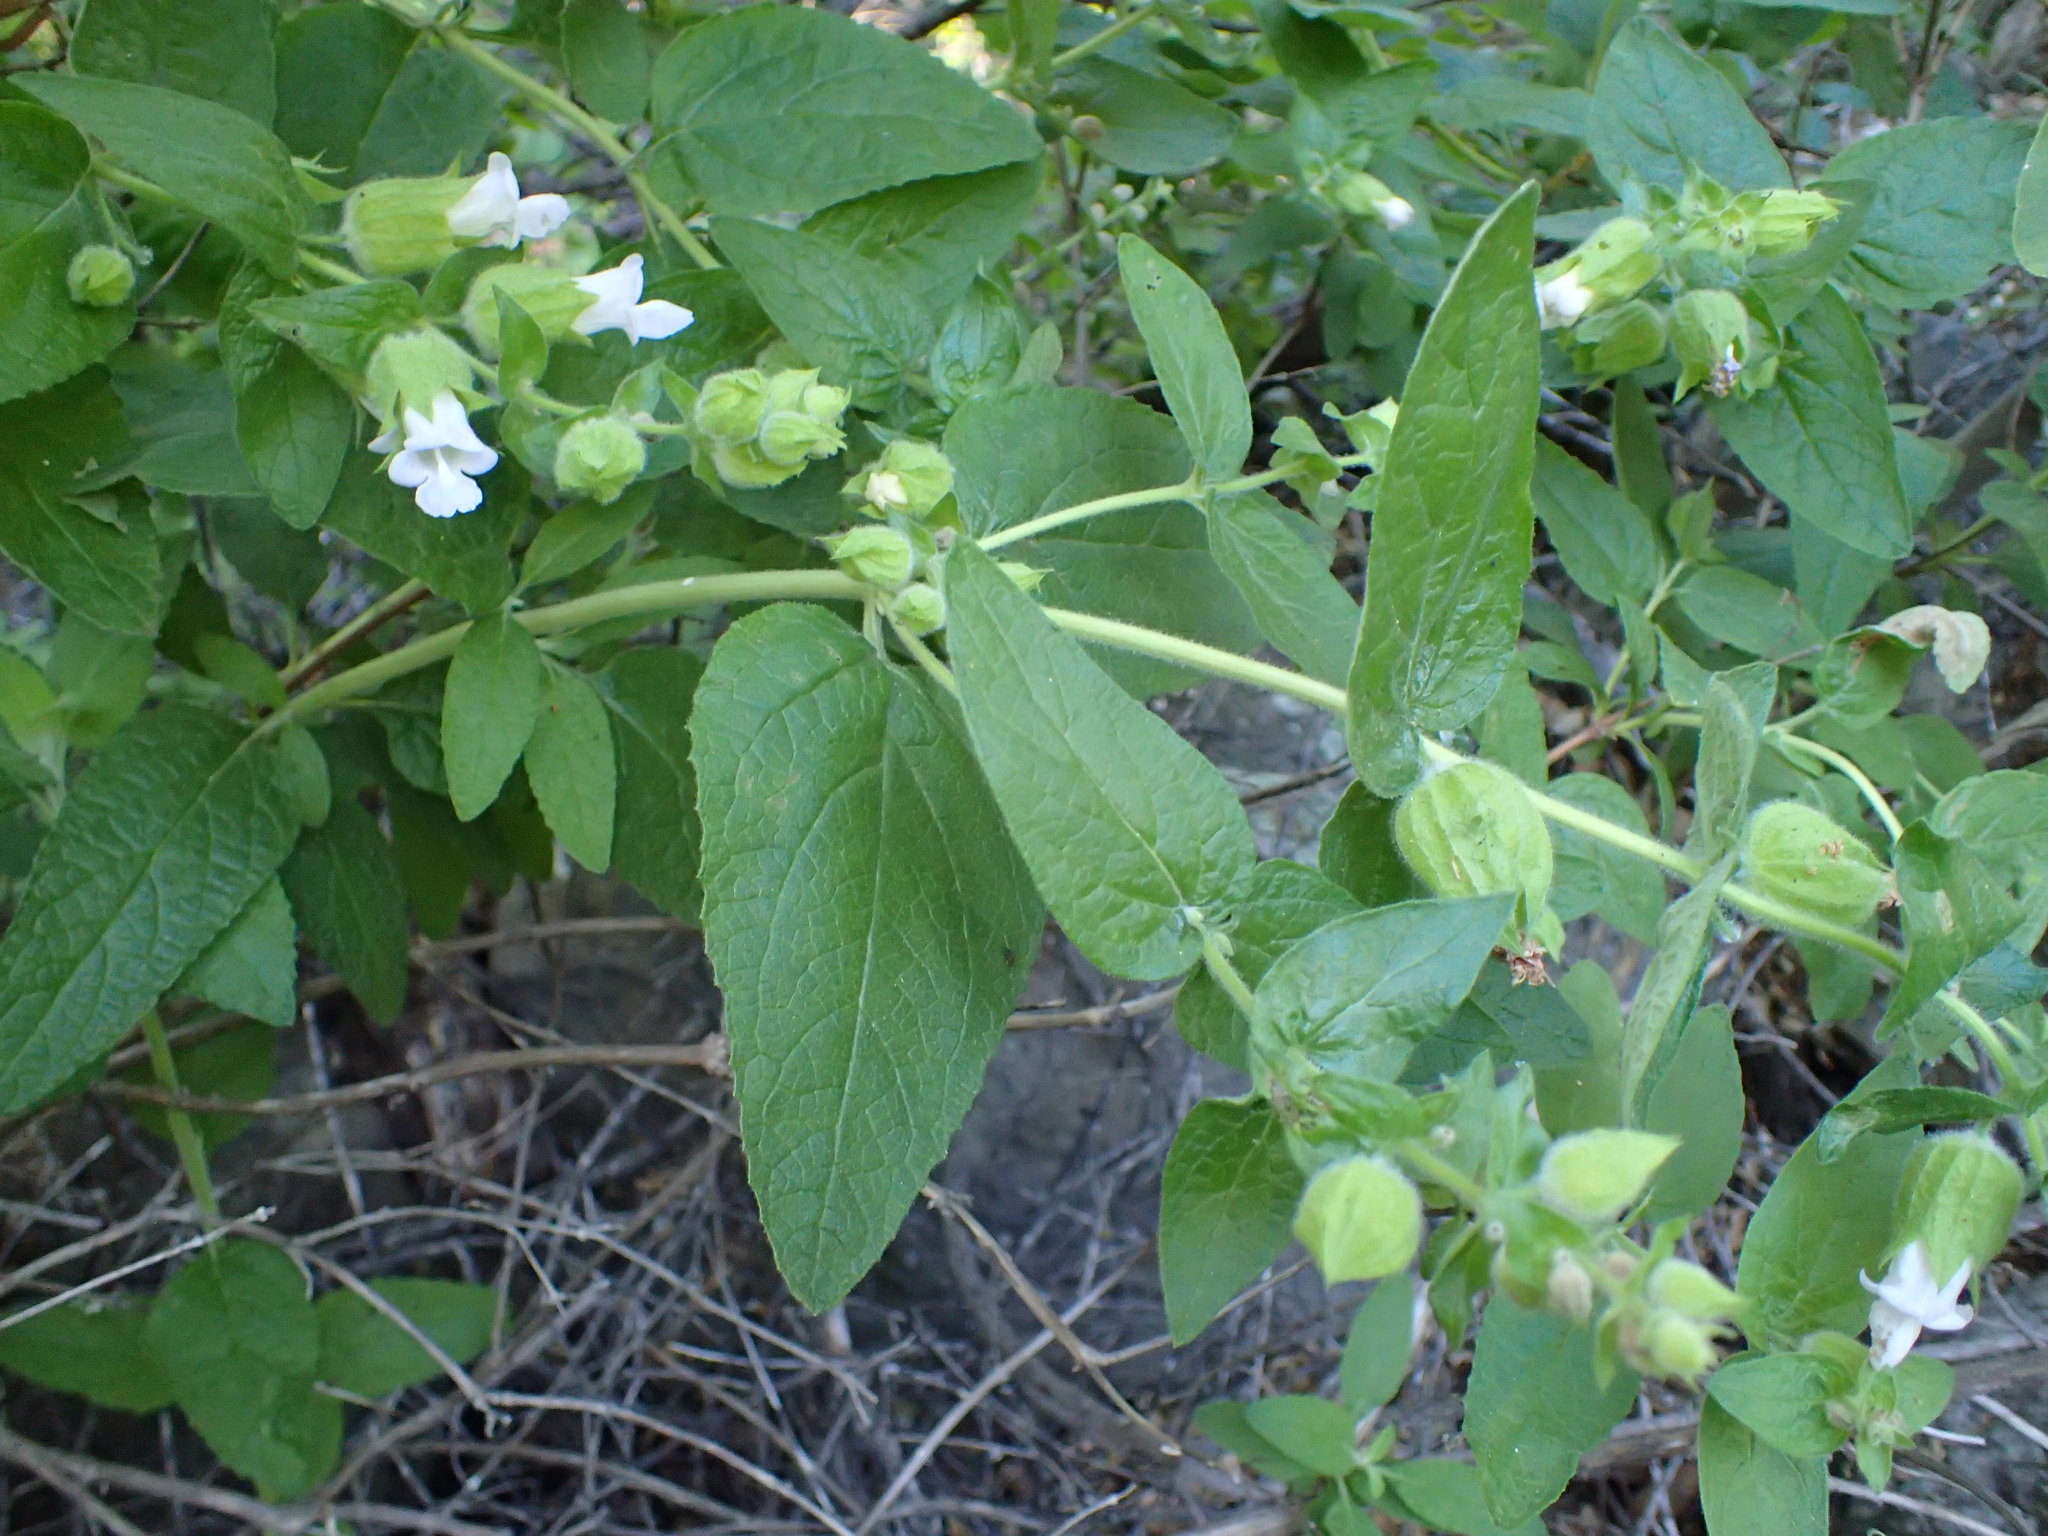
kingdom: Plantae
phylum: Tracheophyta
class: Magnoliopsida
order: Lamiales
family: Lamiaceae
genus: Lepechinia
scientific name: Lepechinia calycina
